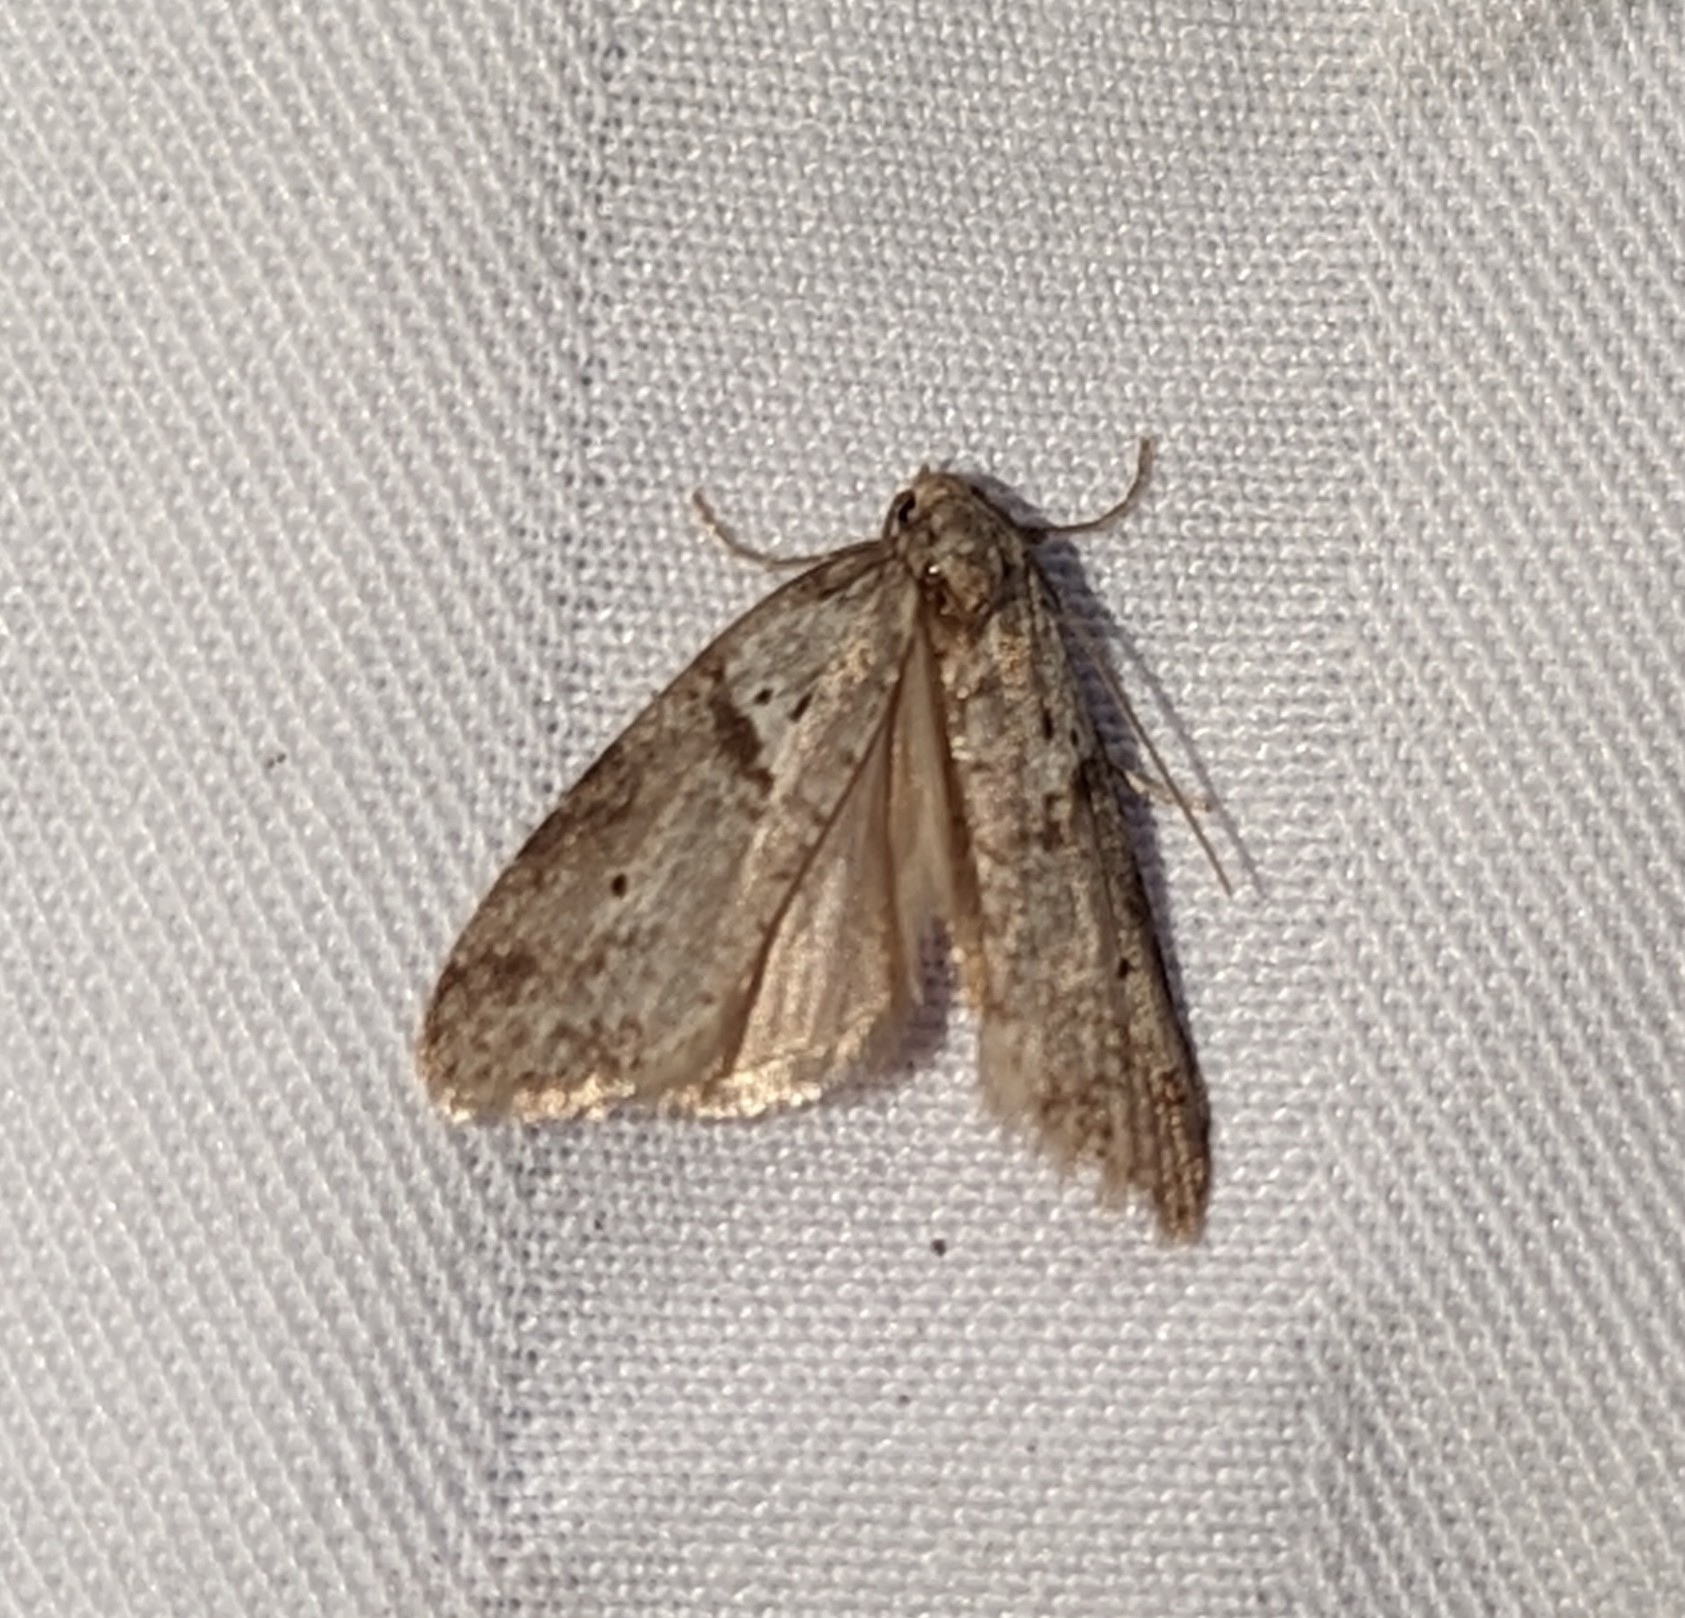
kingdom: Animalia
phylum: Arthropoda
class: Insecta
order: Lepidoptera
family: Copromorphidae
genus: Lotisma
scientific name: Lotisma trigonana
